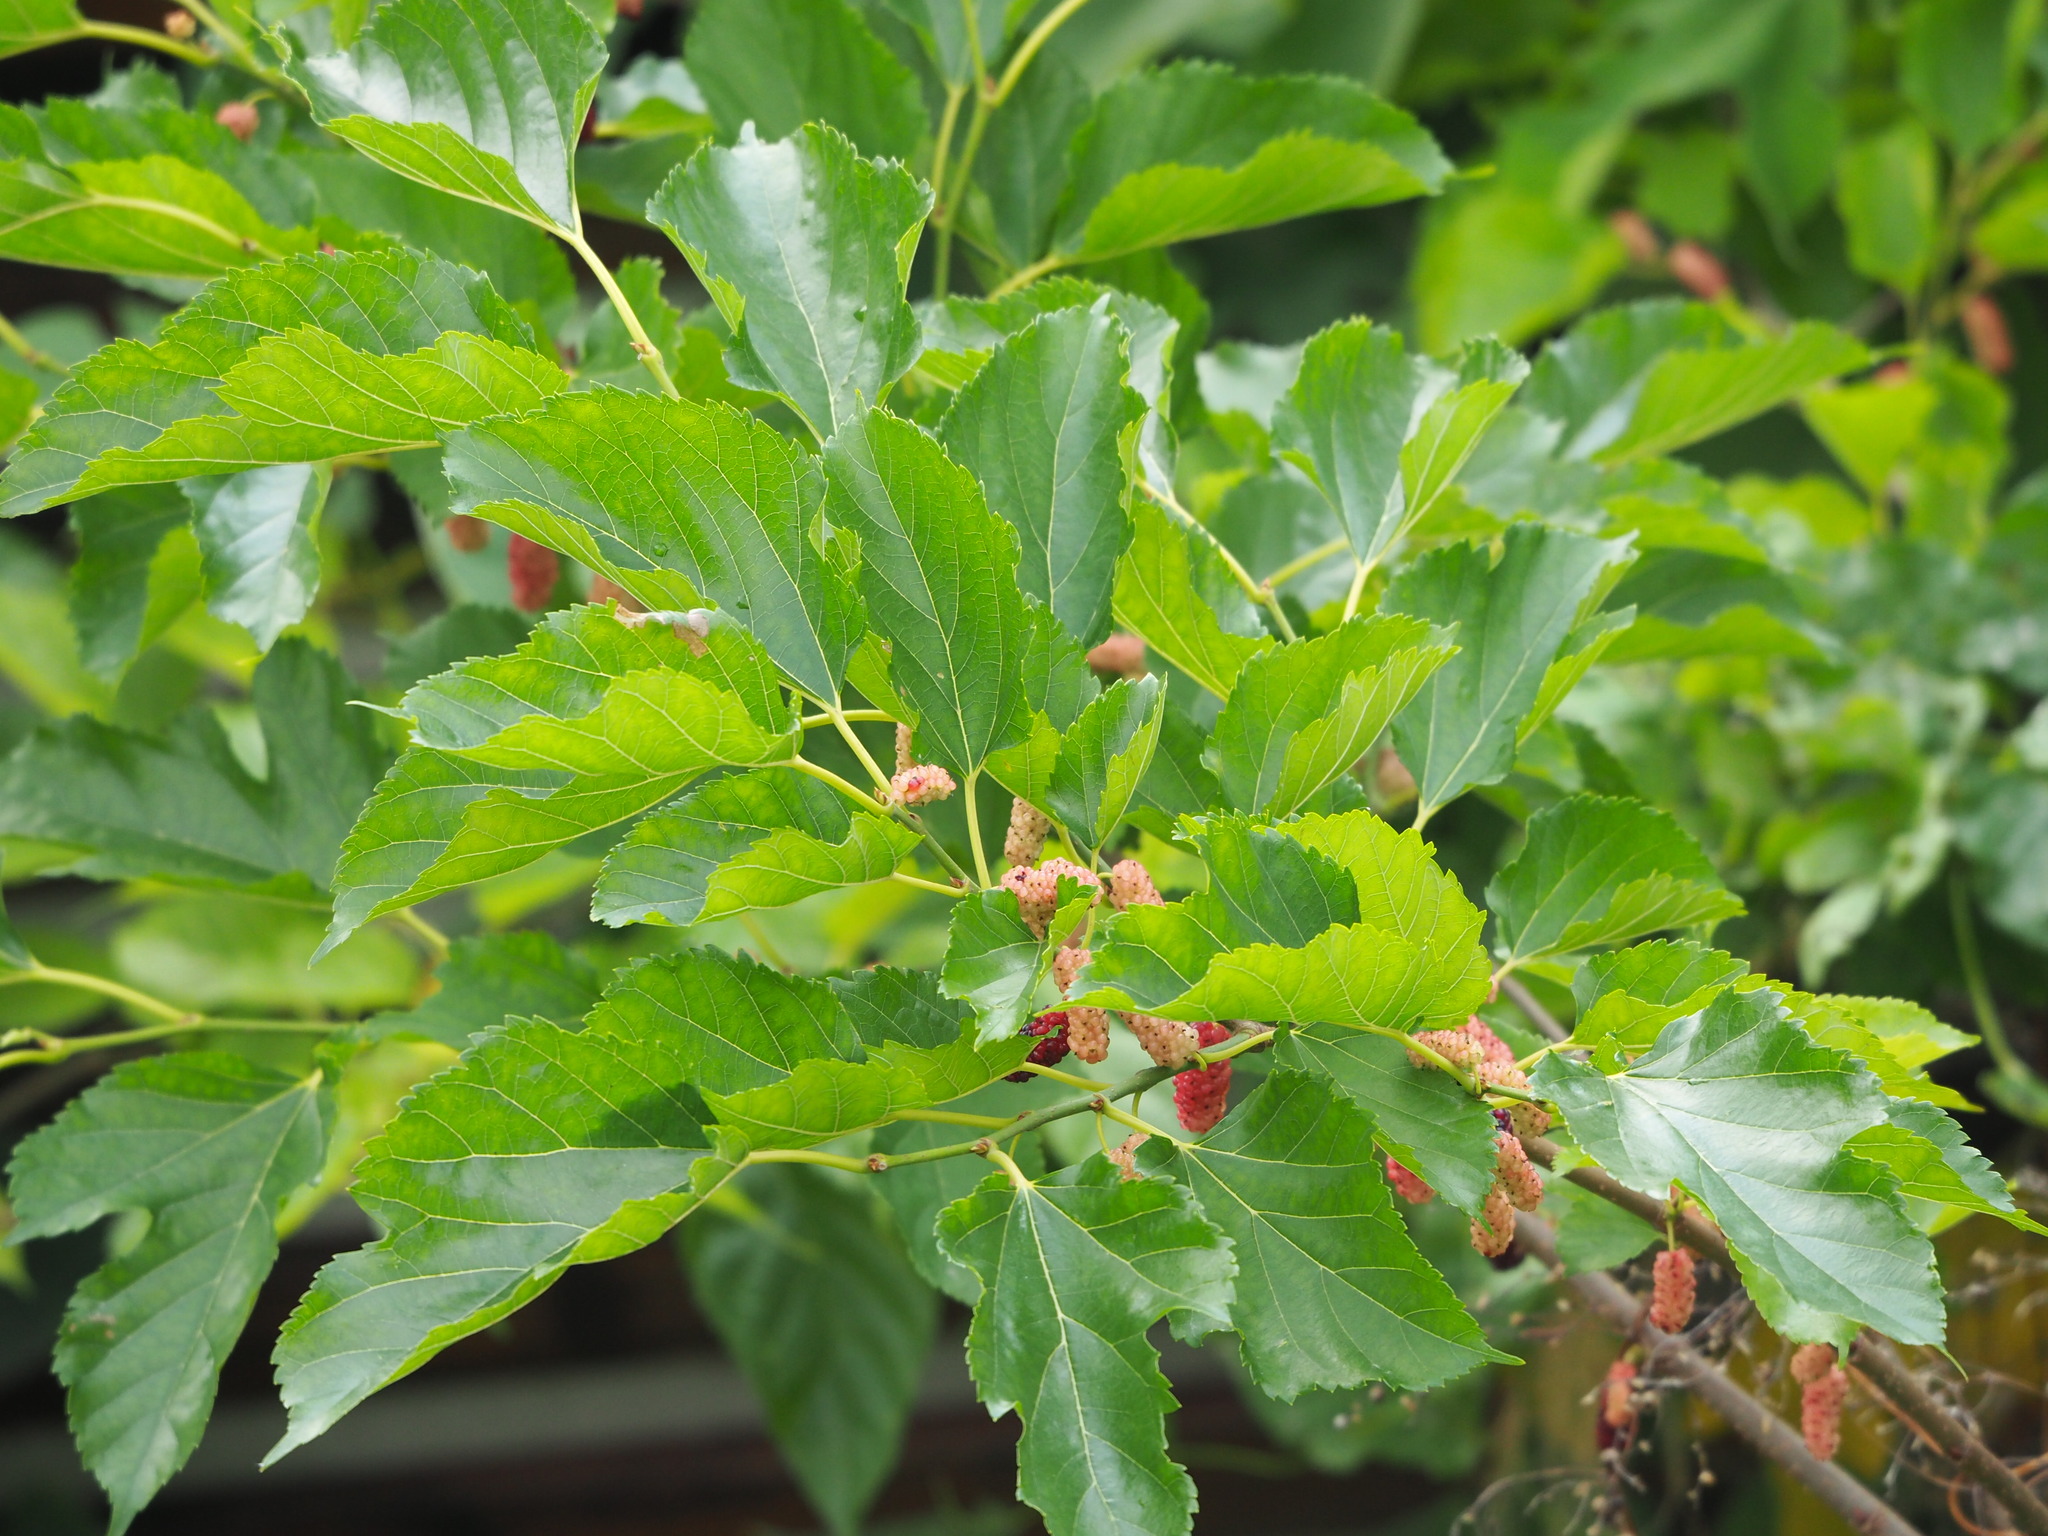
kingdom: Plantae
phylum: Tracheophyta
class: Magnoliopsida
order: Rosales
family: Moraceae
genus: Morus
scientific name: Morus indica
